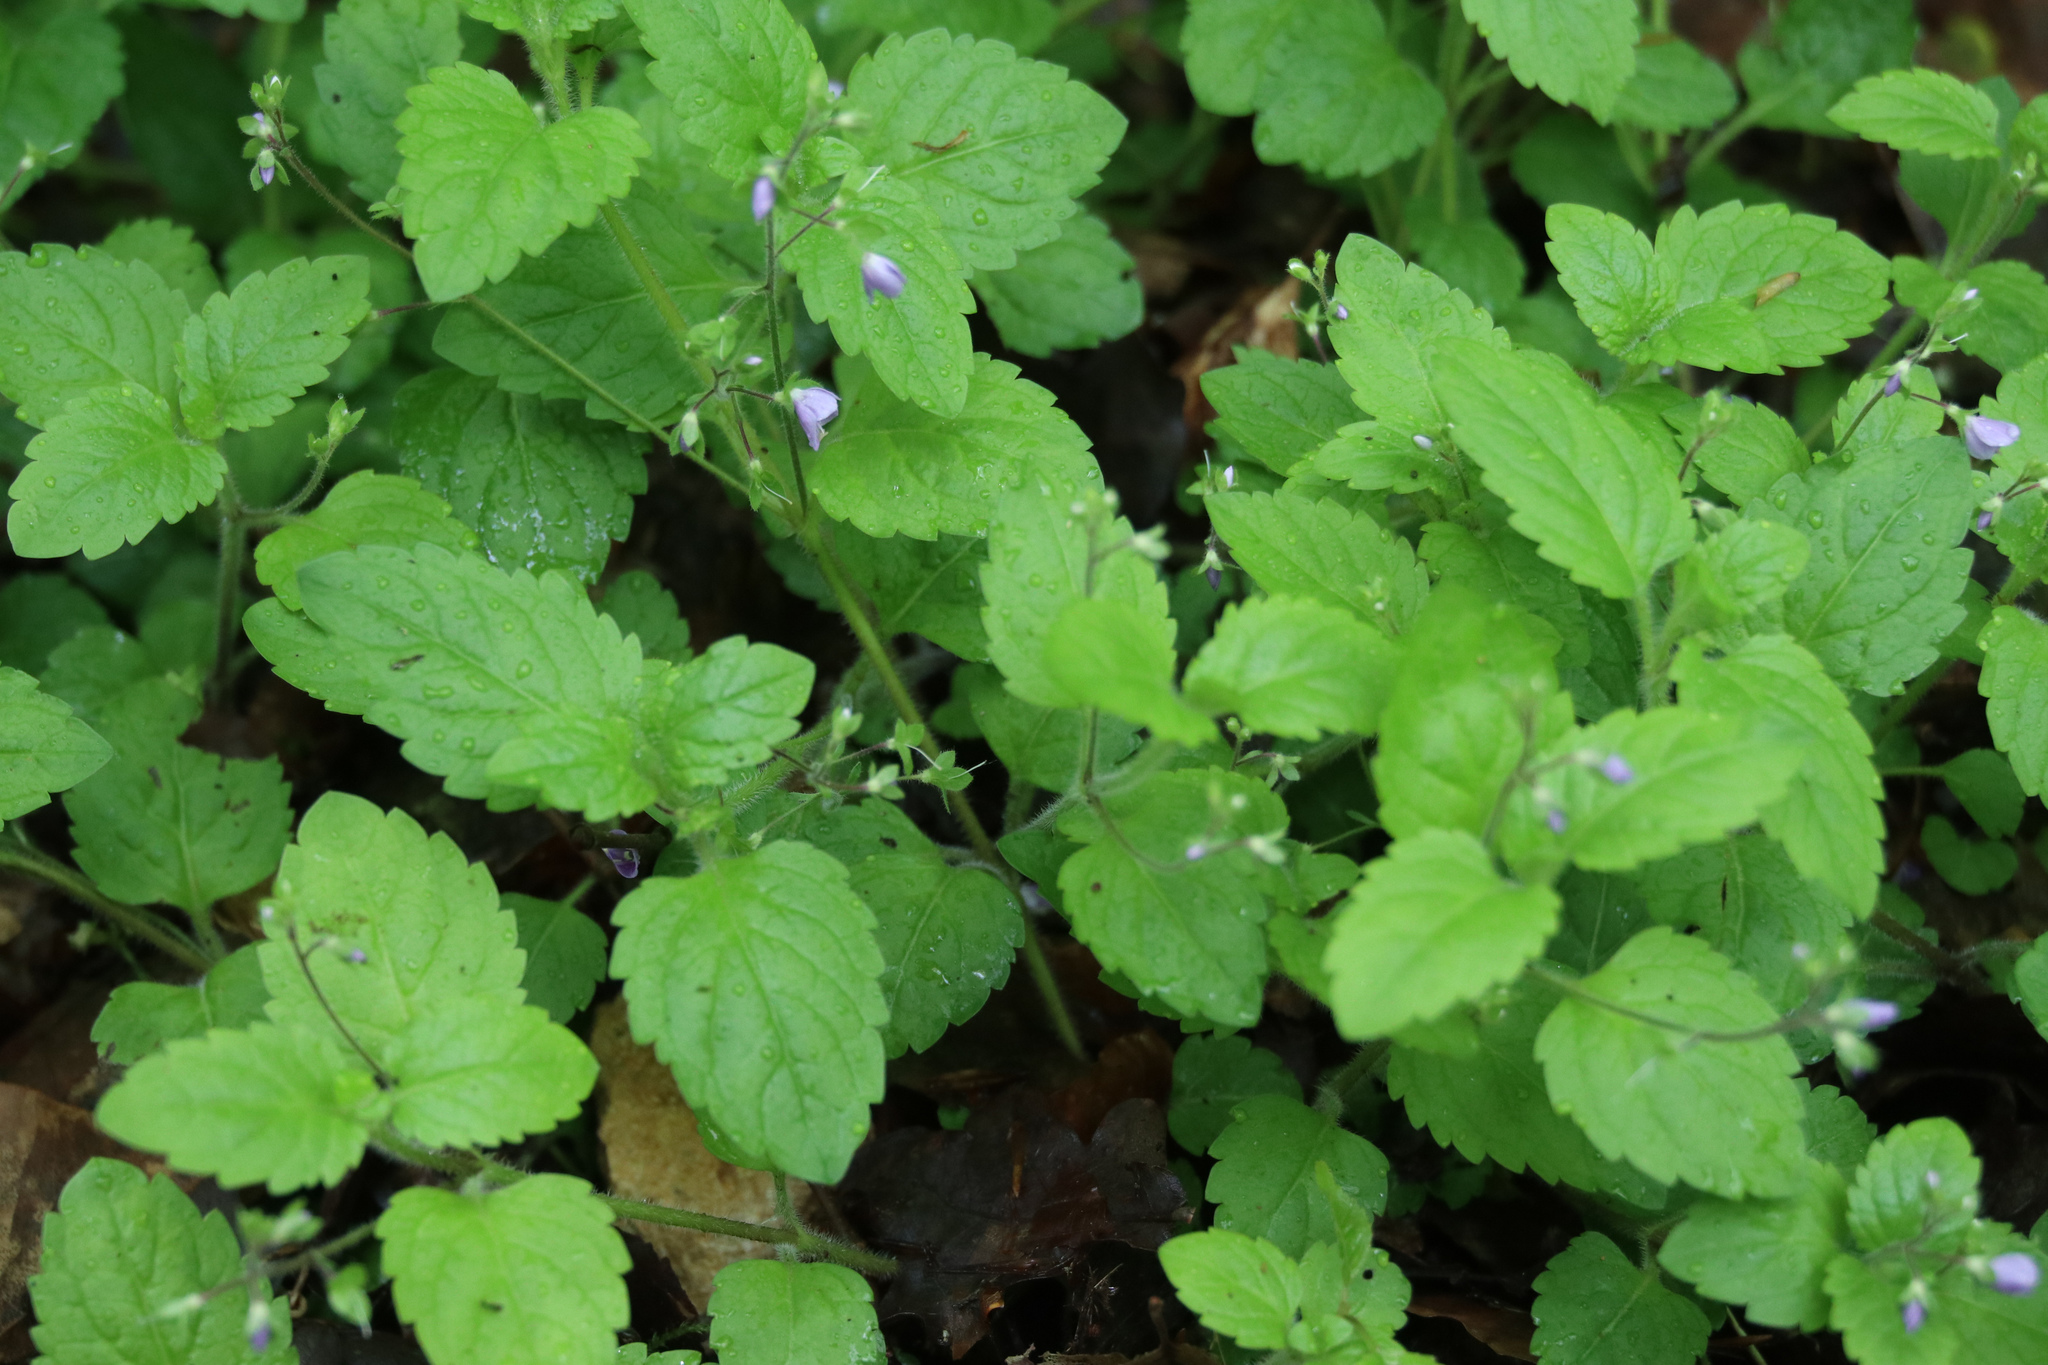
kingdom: Plantae
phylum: Tracheophyta
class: Magnoliopsida
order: Lamiales
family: Plantaginaceae
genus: Veronica
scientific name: Veronica montana
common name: Wood speedwell
